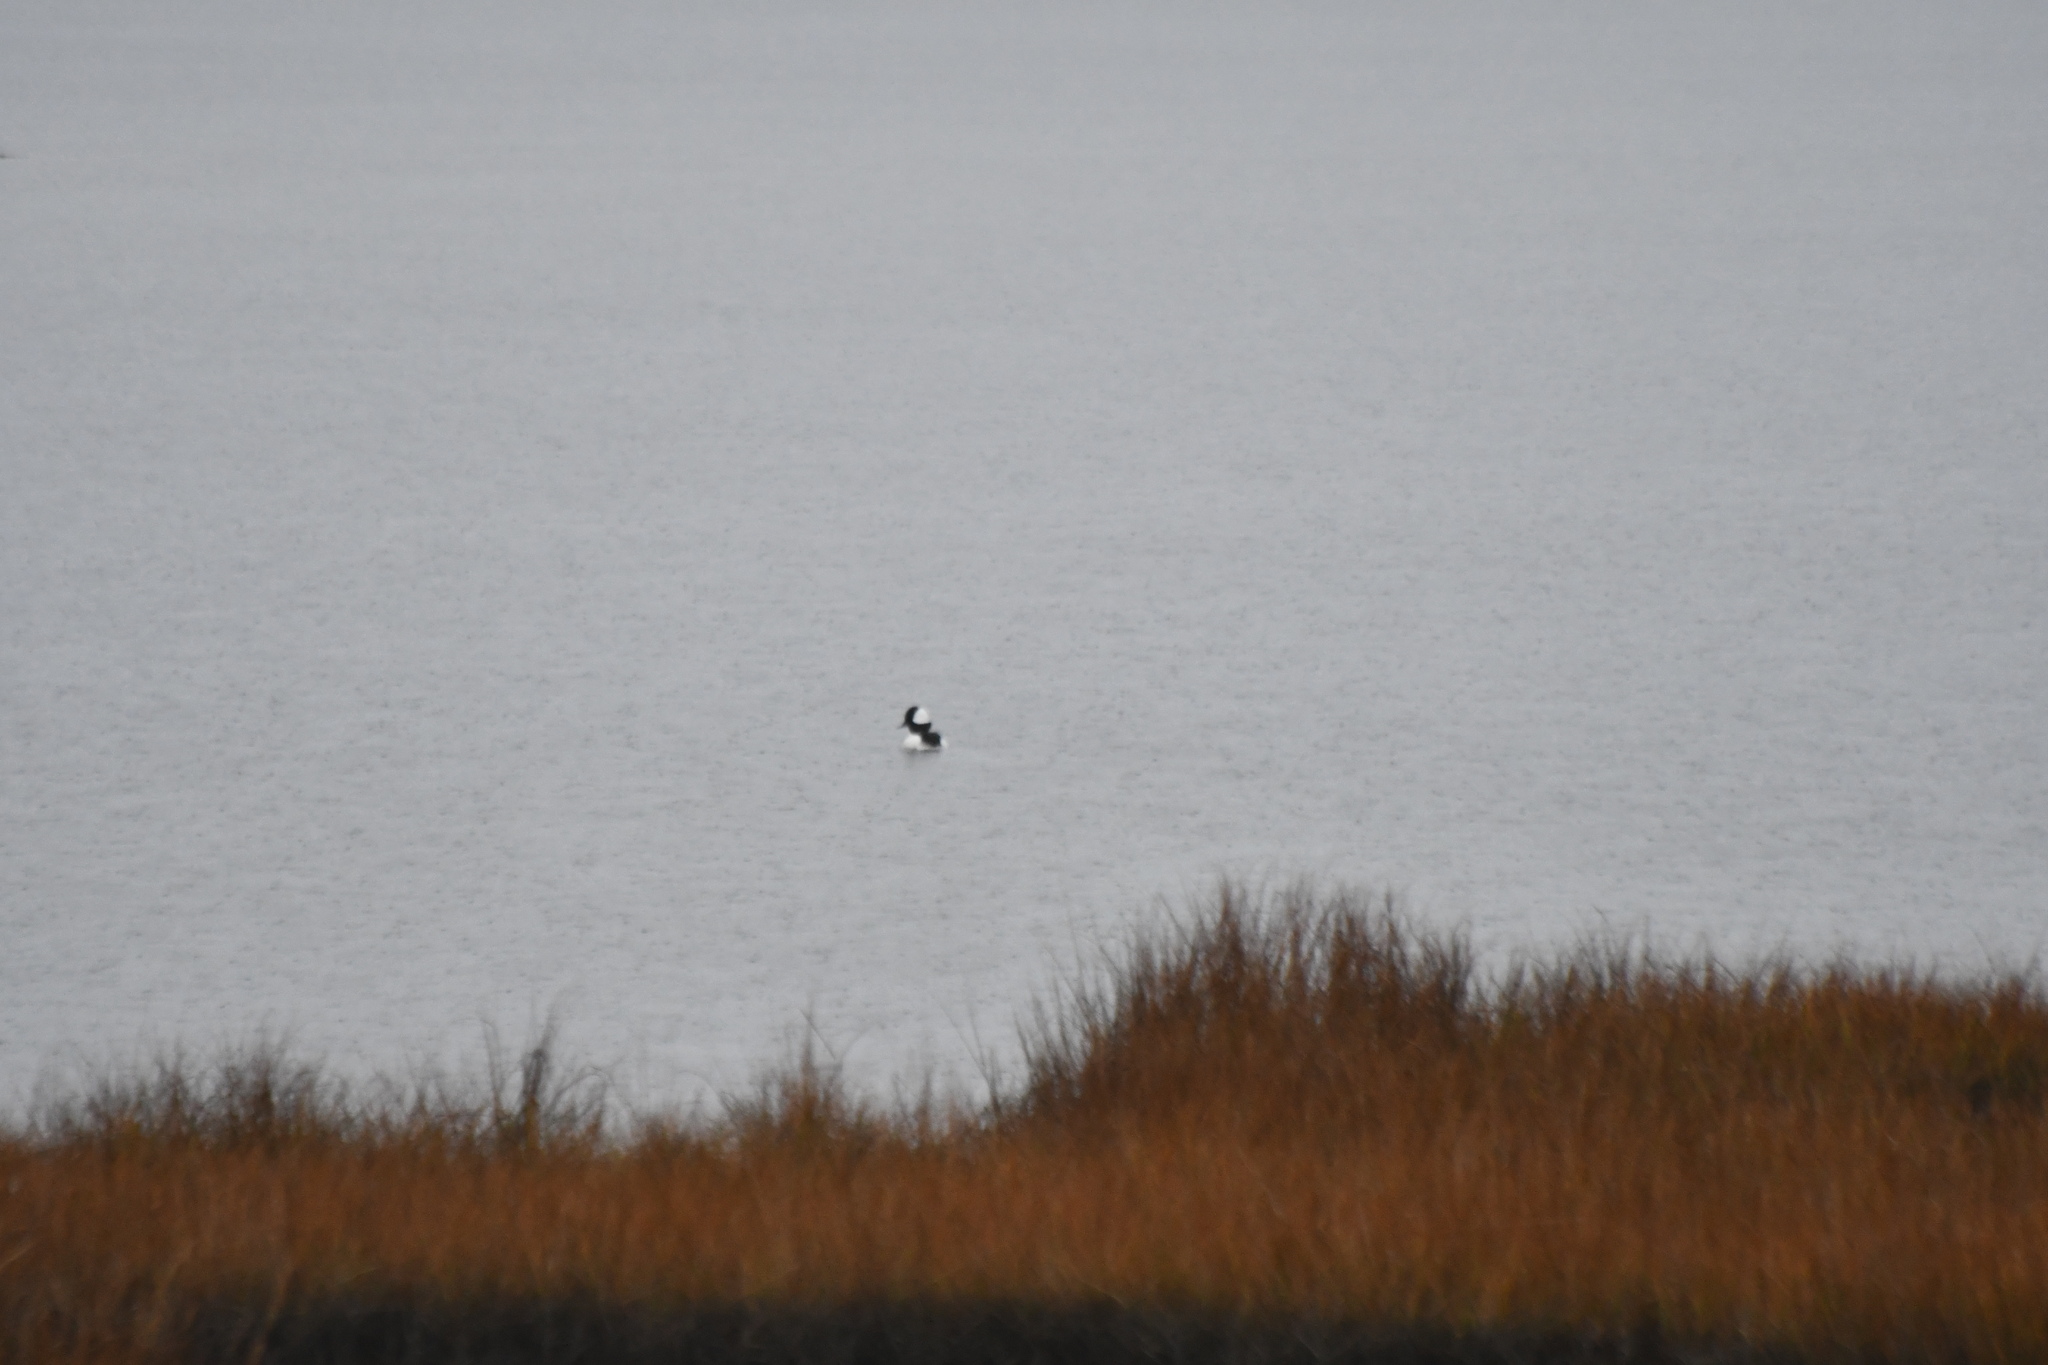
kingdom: Animalia
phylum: Chordata
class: Aves
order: Anseriformes
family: Anatidae
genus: Bucephala
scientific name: Bucephala albeola
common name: Bufflehead
